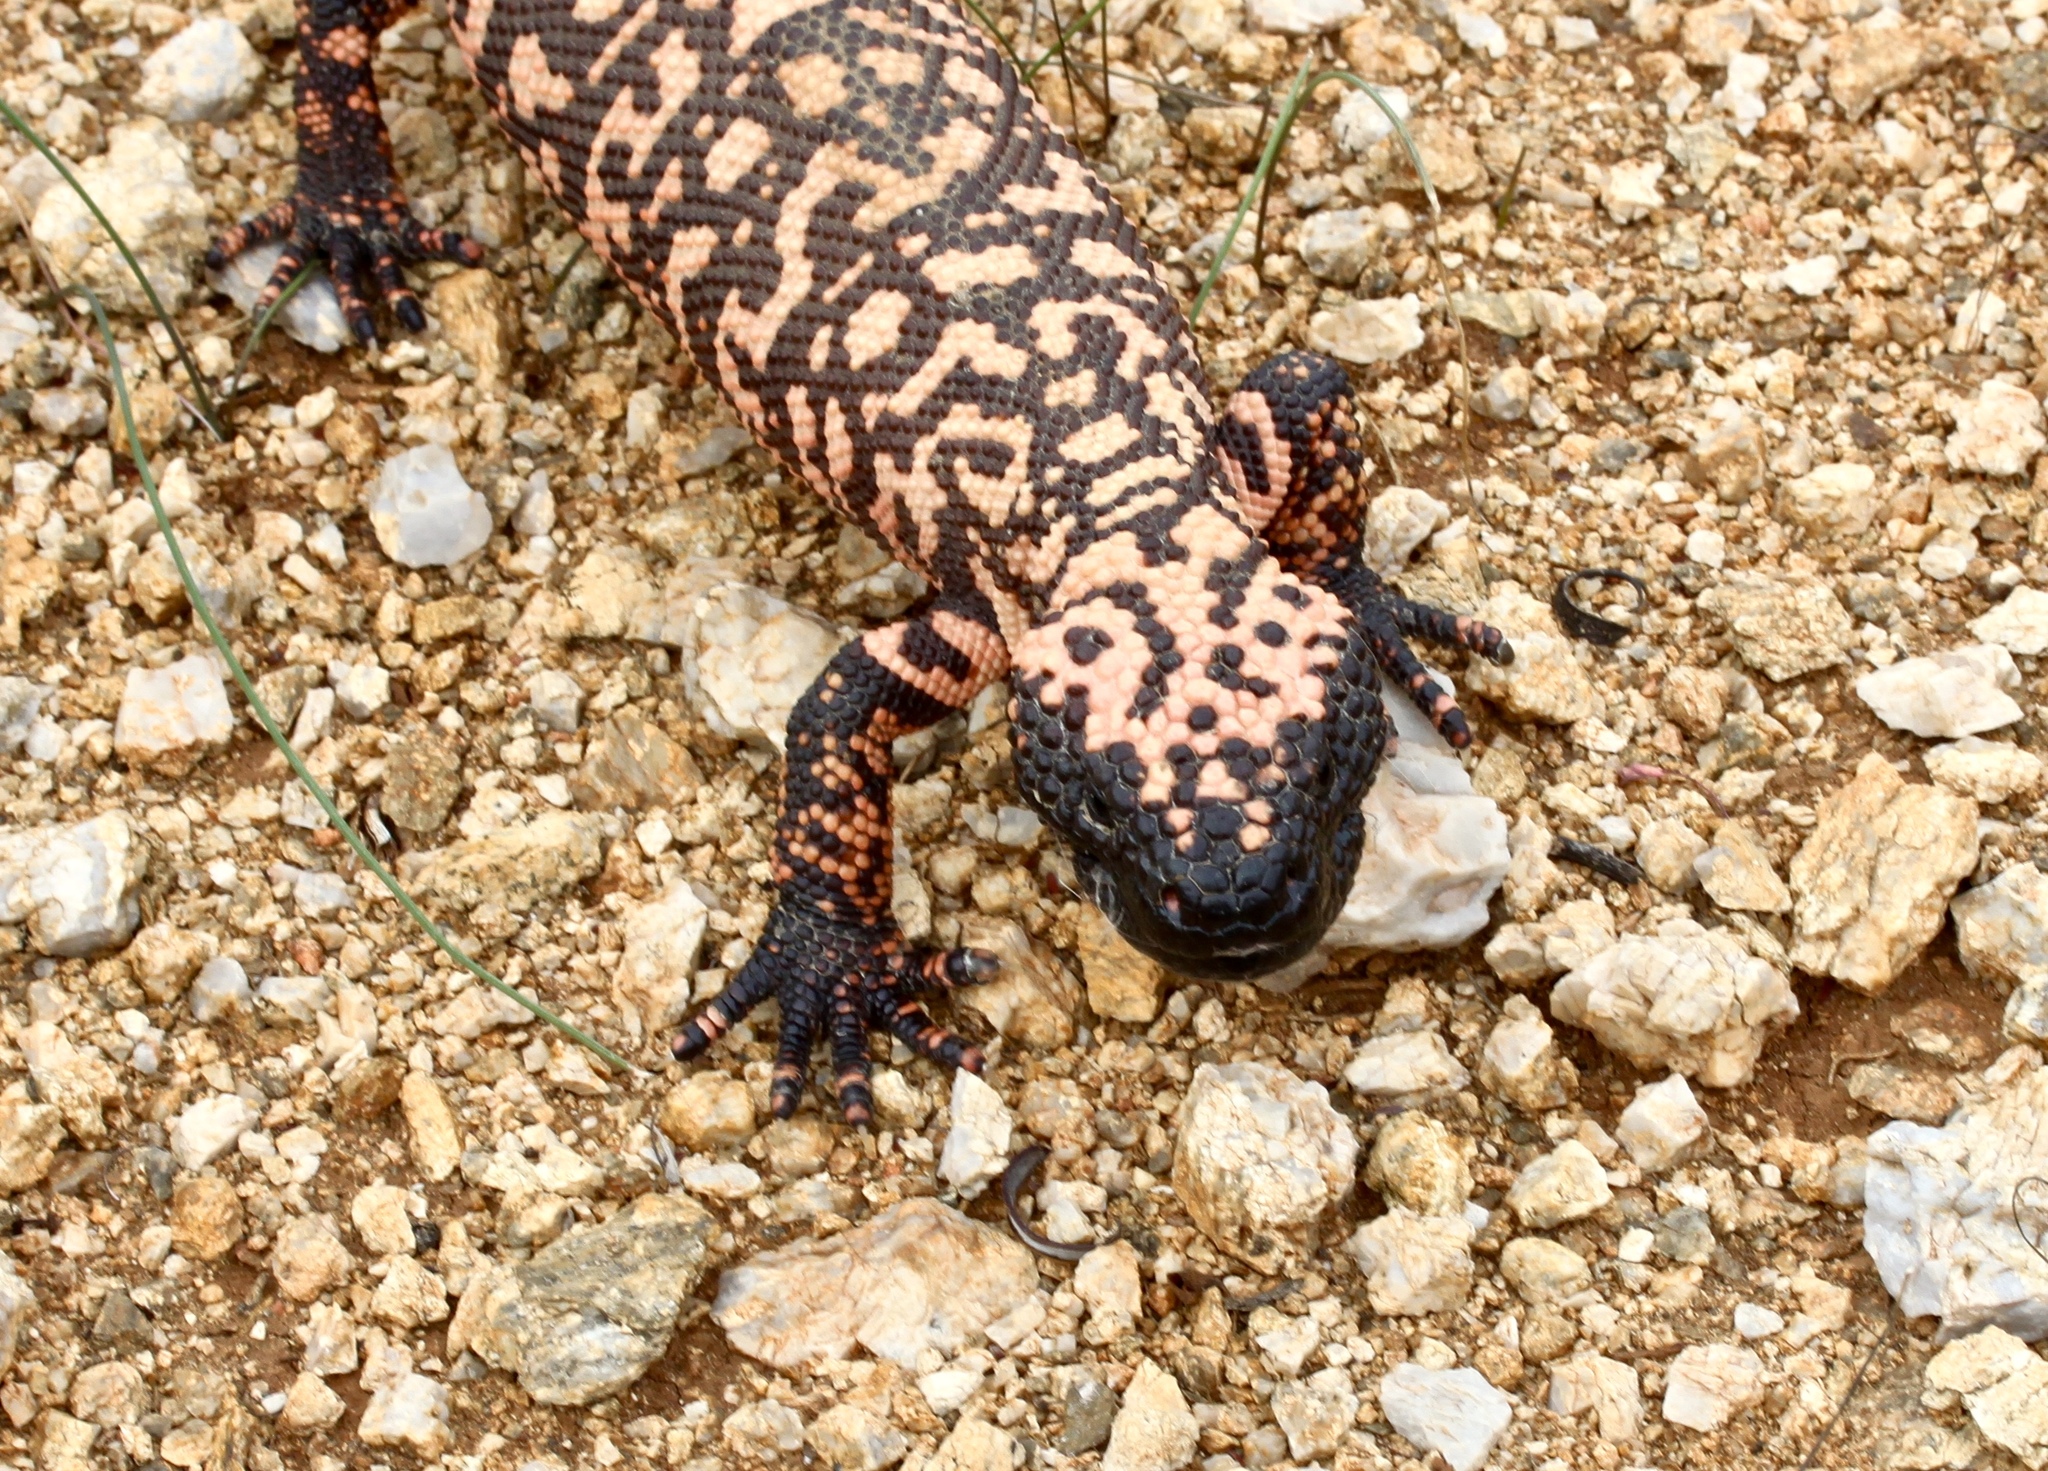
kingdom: Animalia
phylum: Chordata
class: Squamata
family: Helodermatidae
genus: Heloderma
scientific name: Heloderma suspectum
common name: Gila monster
